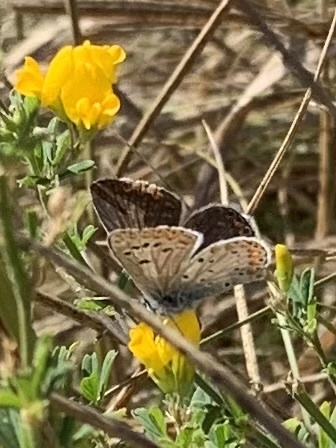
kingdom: Animalia
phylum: Arthropoda
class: Insecta
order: Lepidoptera
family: Lycaenidae
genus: Aricia
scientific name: Aricia agestis
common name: Brown argus
